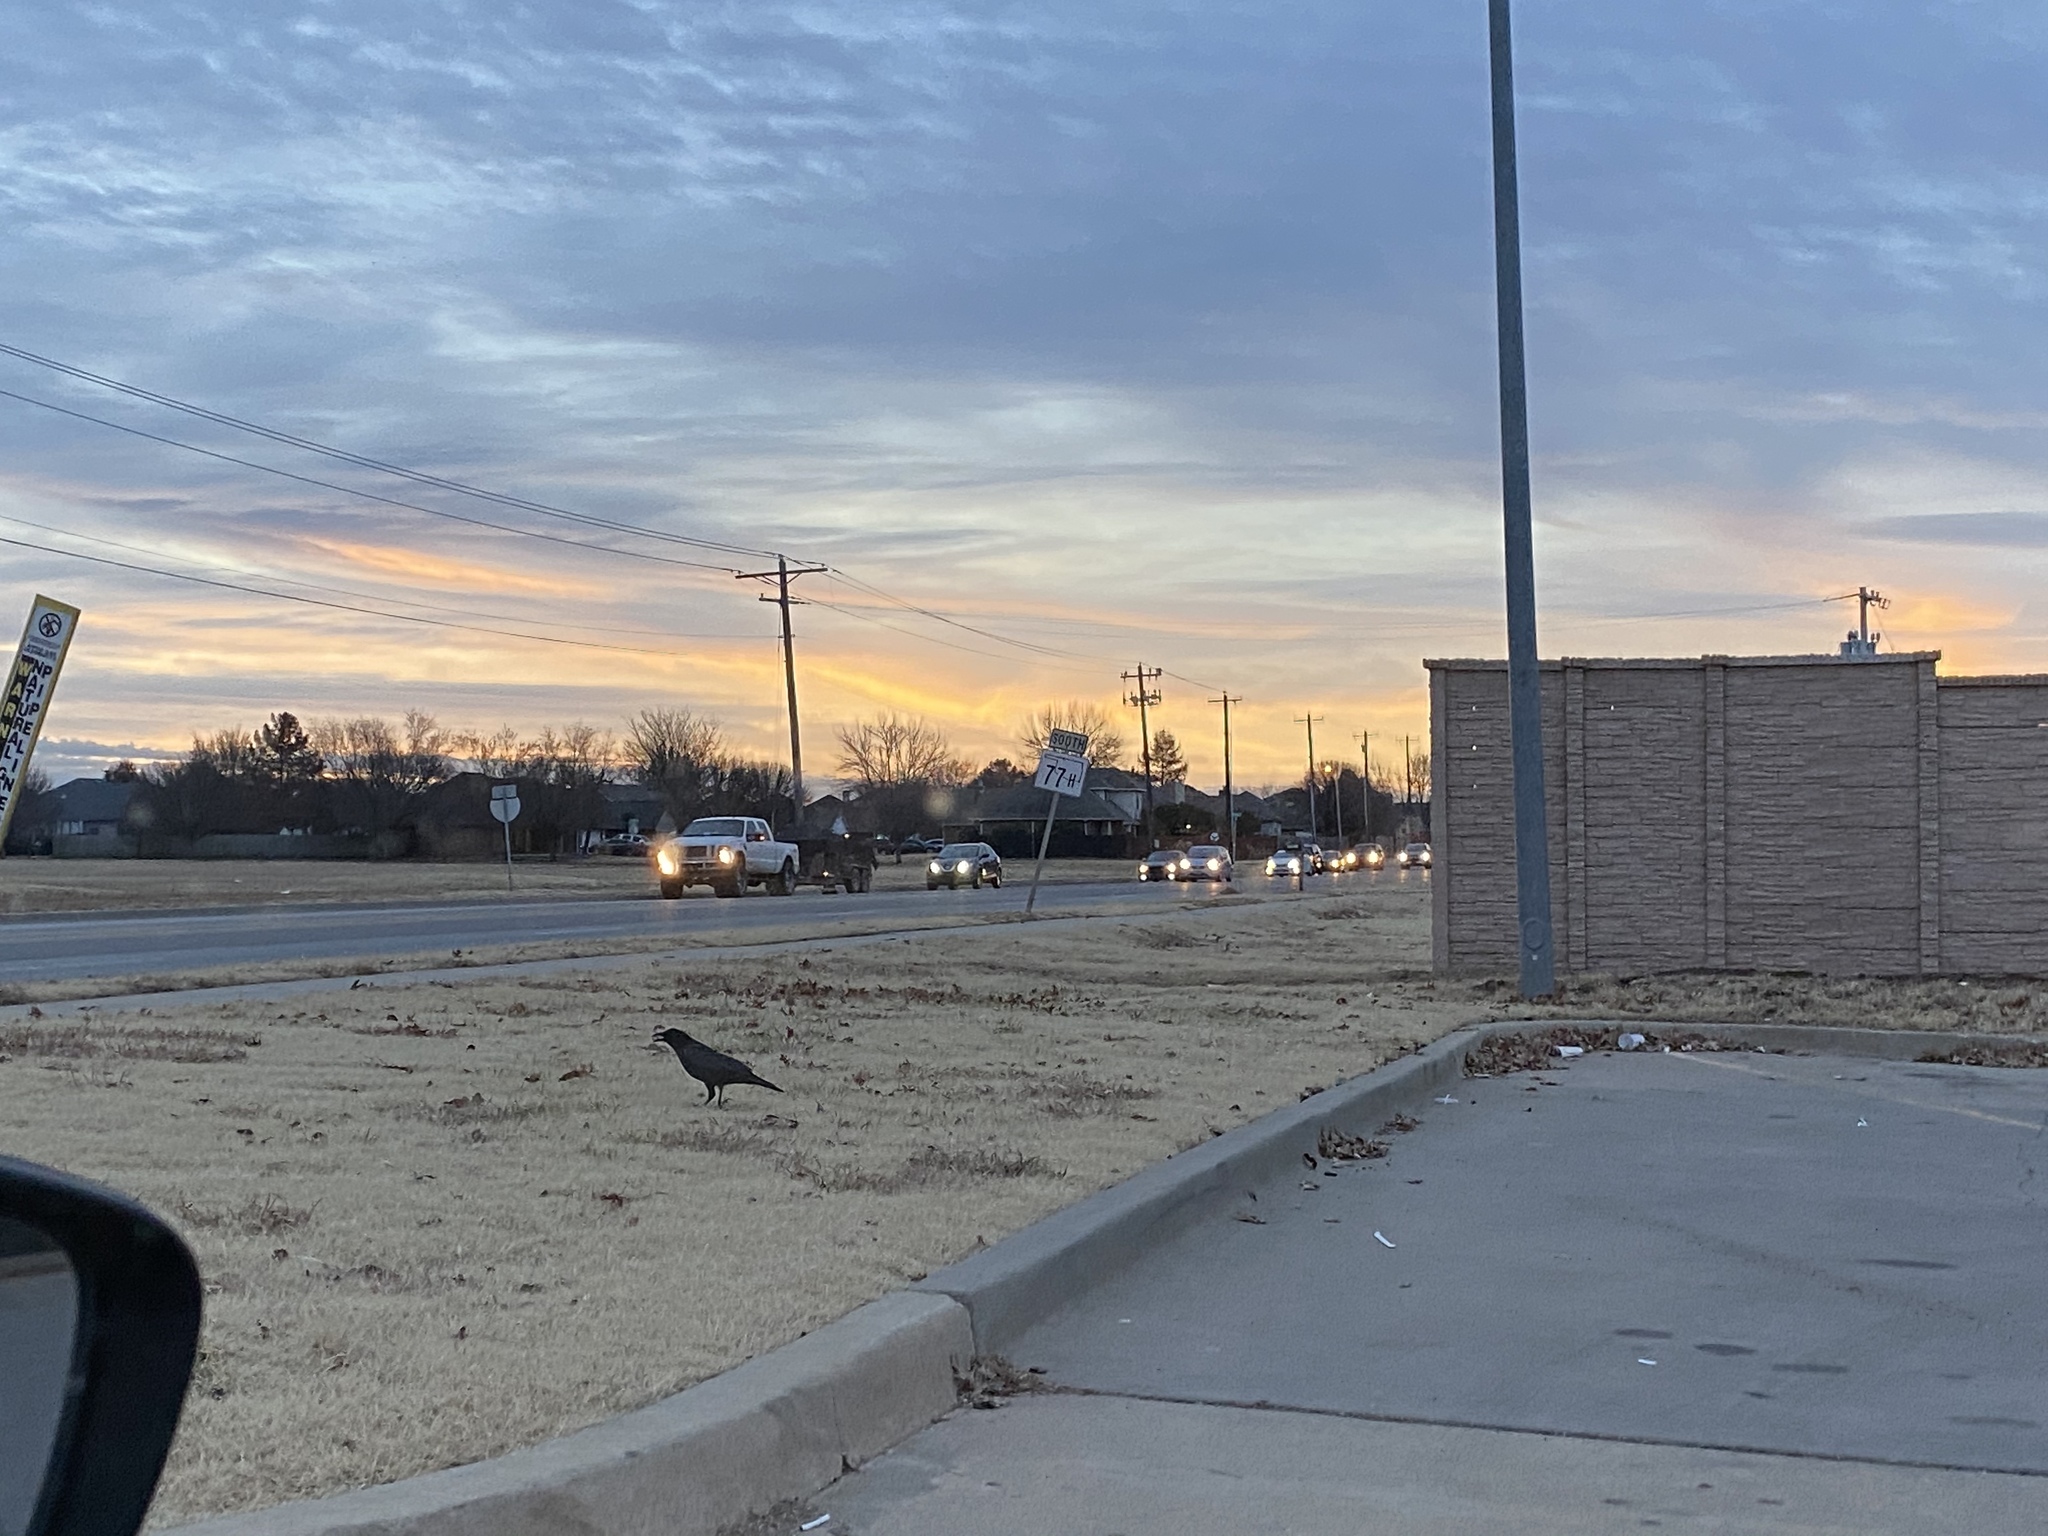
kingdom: Animalia
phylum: Chordata
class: Aves
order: Passeriformes
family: Corvidae
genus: Corvus
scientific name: Corvus brachyrhynchos
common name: American crow
